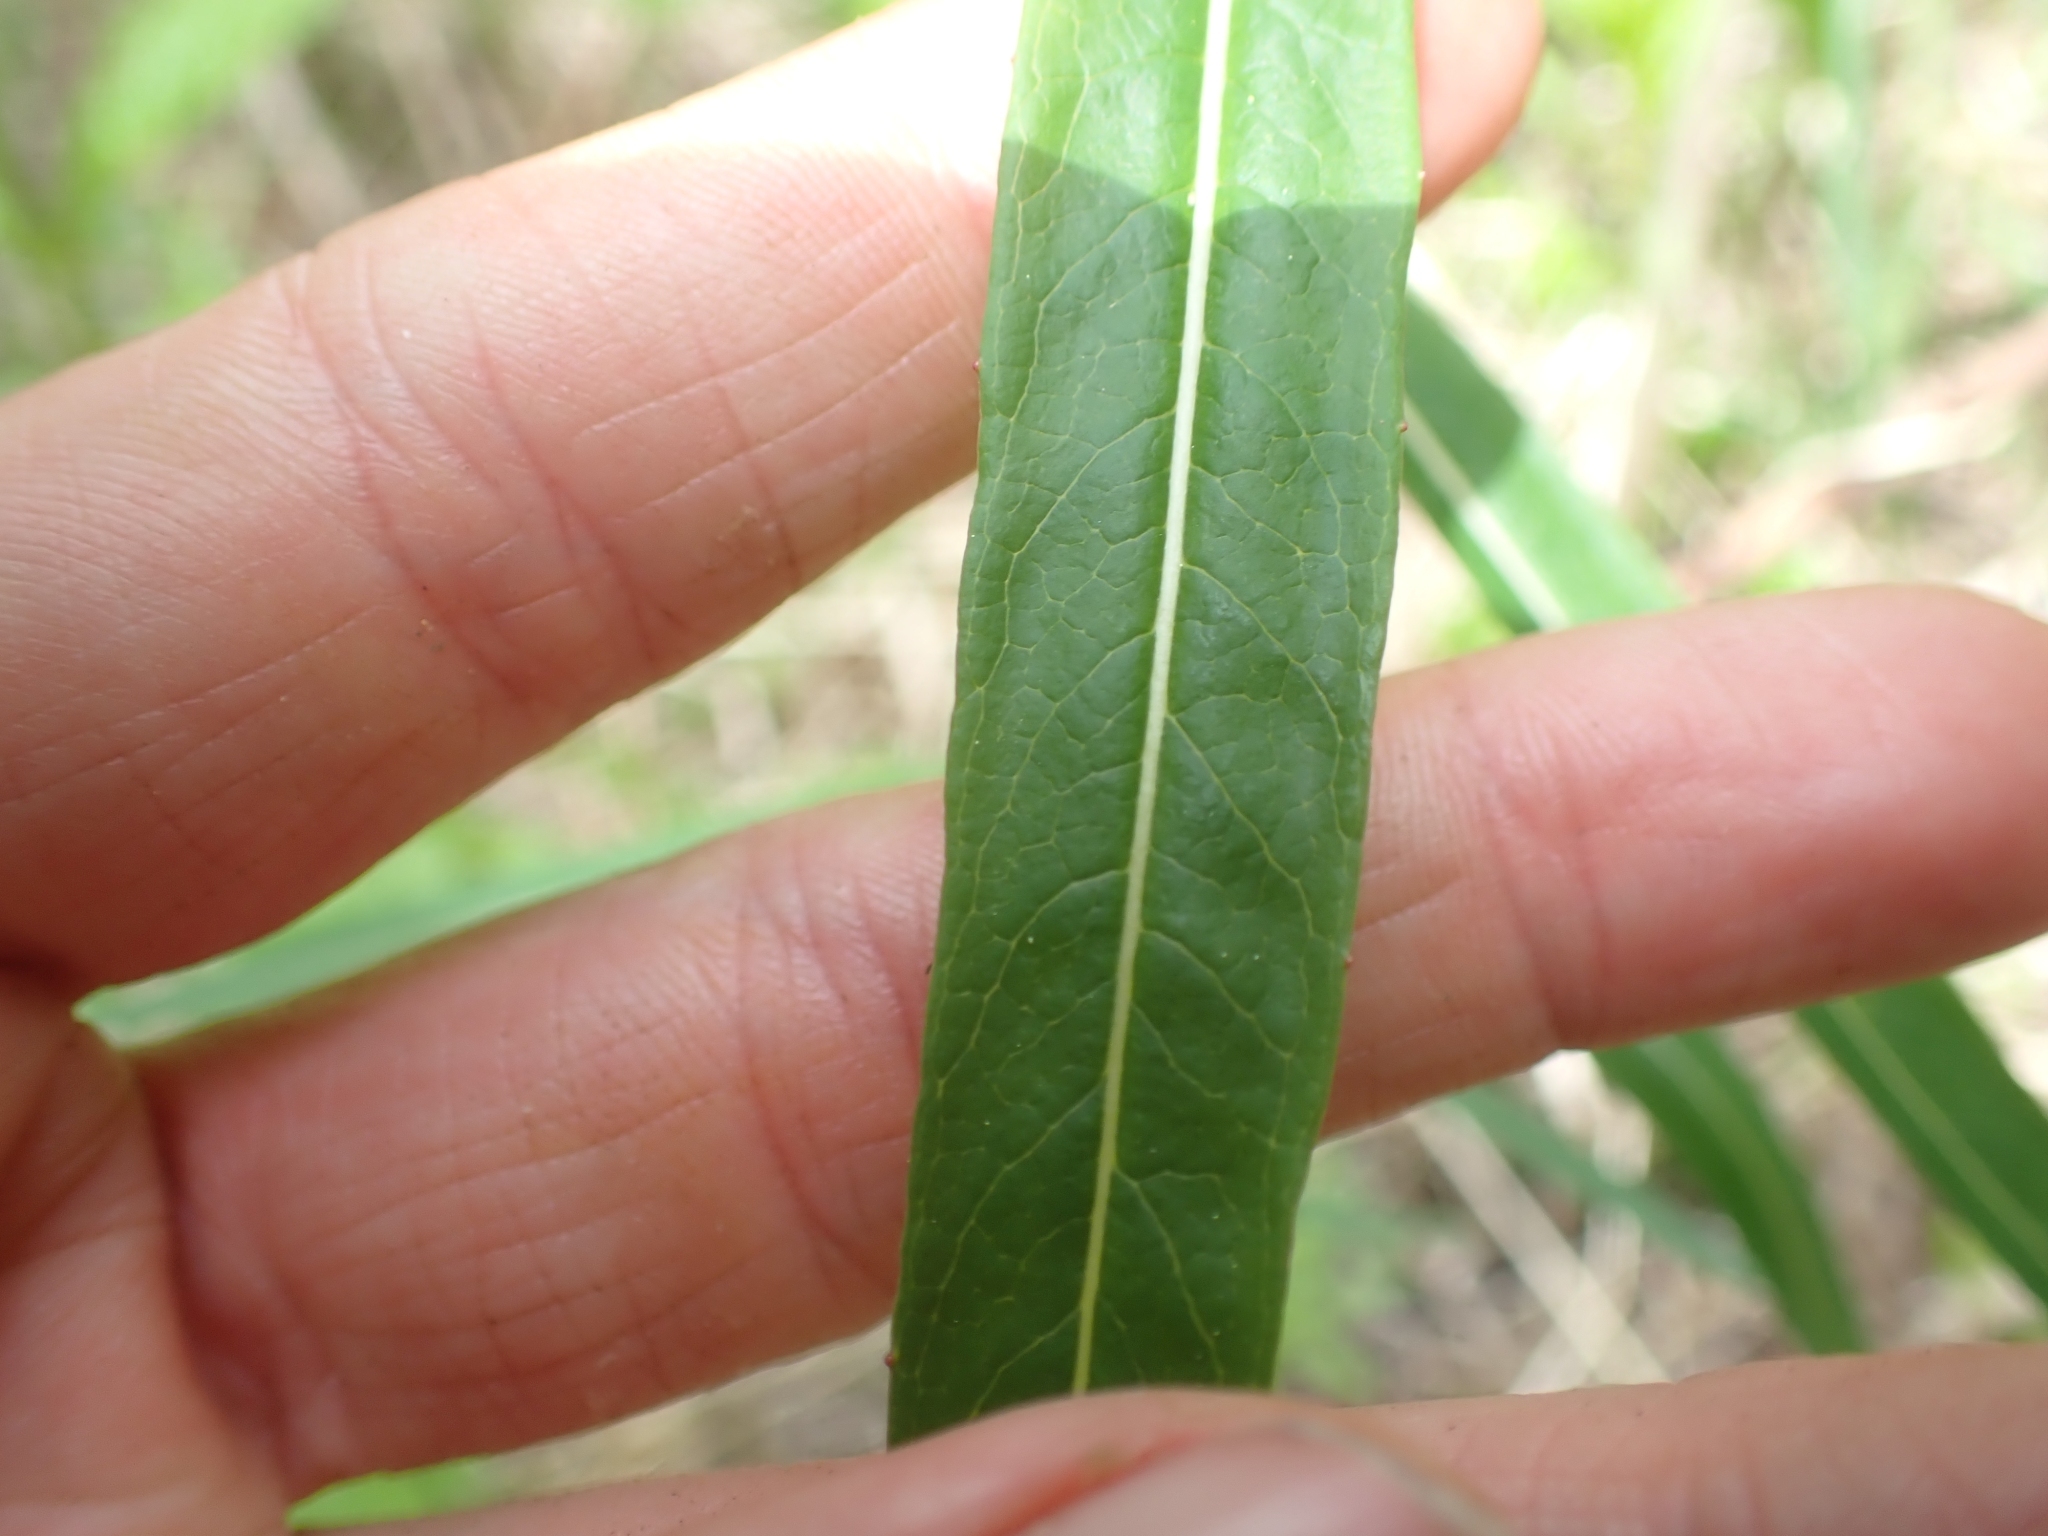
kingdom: Plantae
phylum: Tracheophyta
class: Magnoliopsida
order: Myrtales
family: Onagraceae
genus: Chamaenerion
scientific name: Chamaenerion angustifolium
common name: Fireweed
